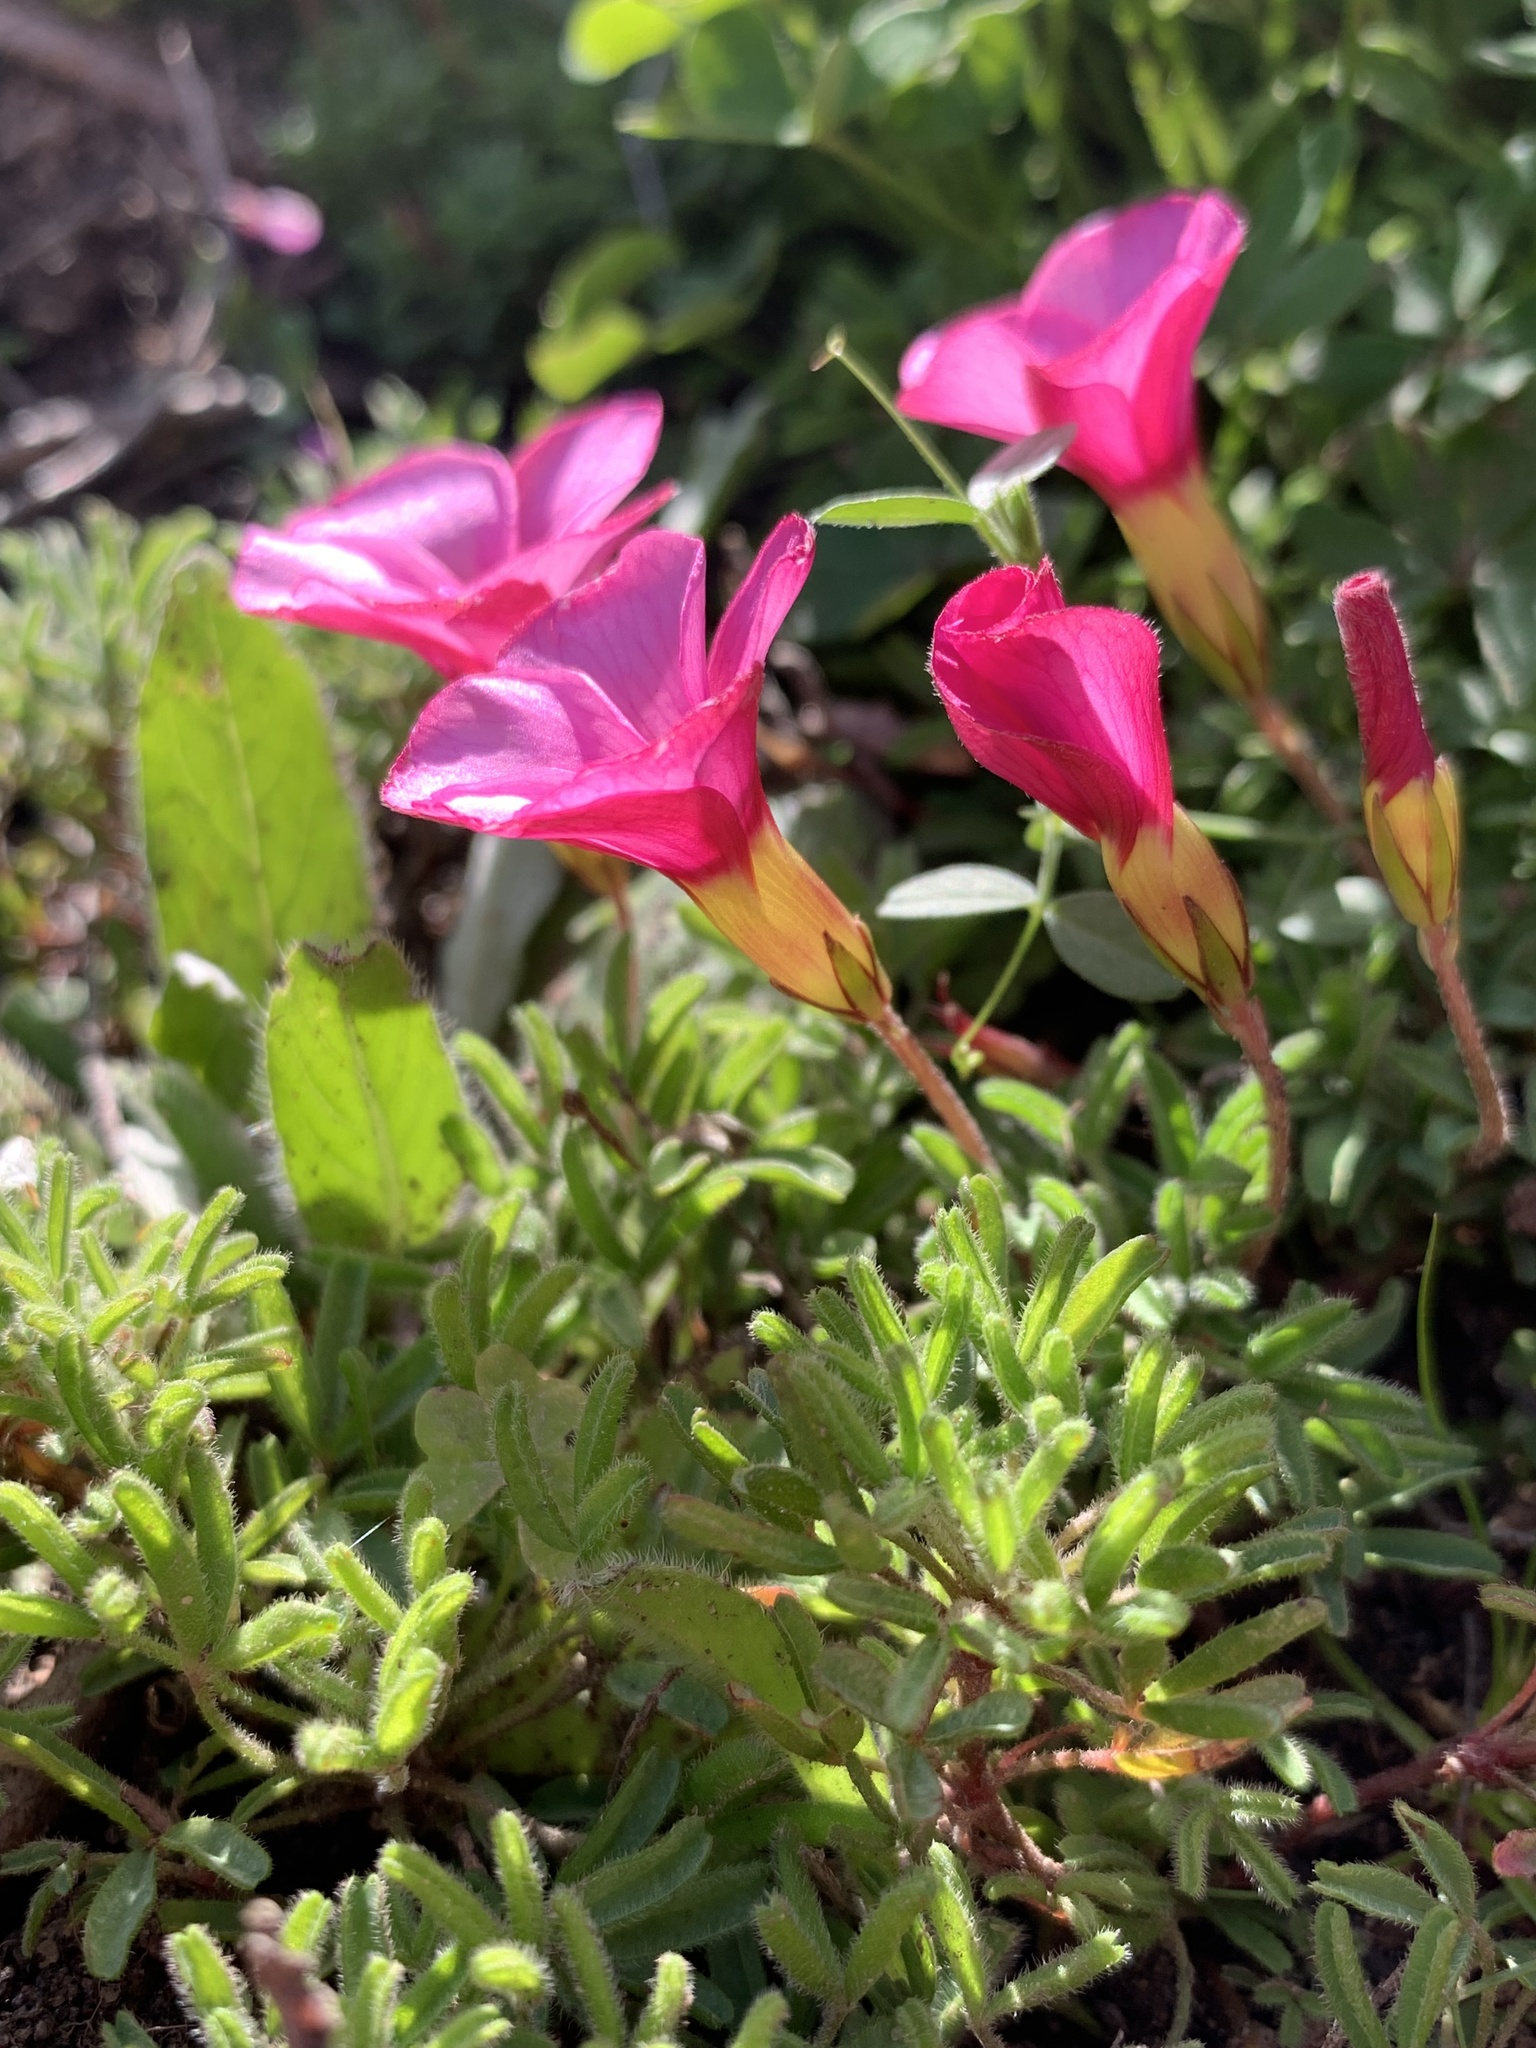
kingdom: Plantae
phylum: Tracheophyta
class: Magnoliopsida
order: Oxalidales
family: Oxalidaceae
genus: Oxalis
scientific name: Oxalis glabra
